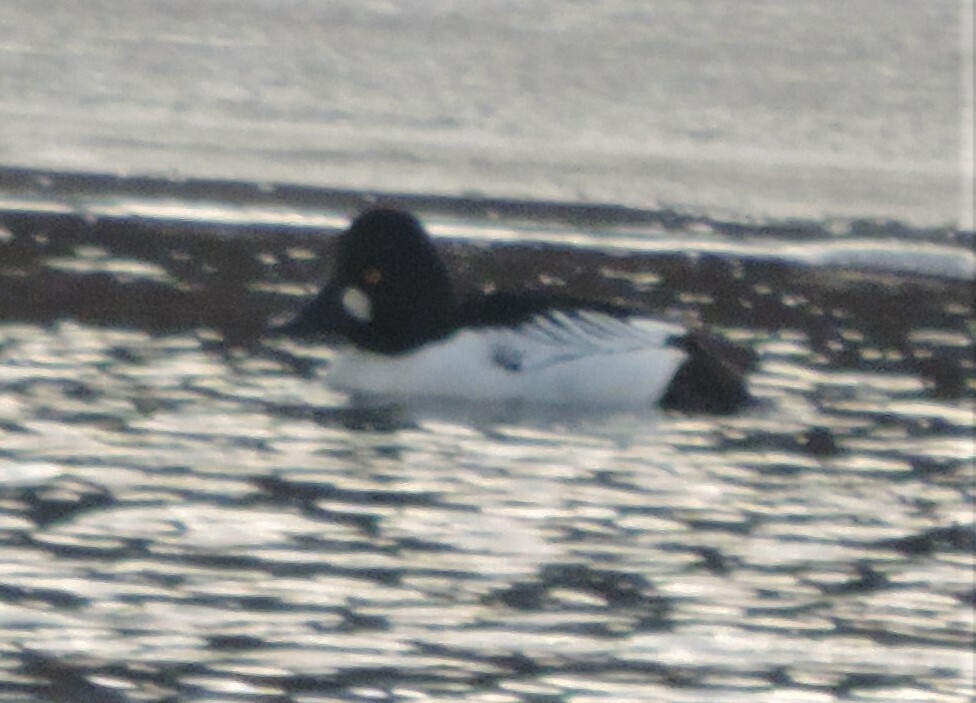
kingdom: Animalia
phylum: Chordata
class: Aves
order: Anseriformes
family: Anatidae
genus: Bucephala
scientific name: Bucephala clangula
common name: Common goldeneye
